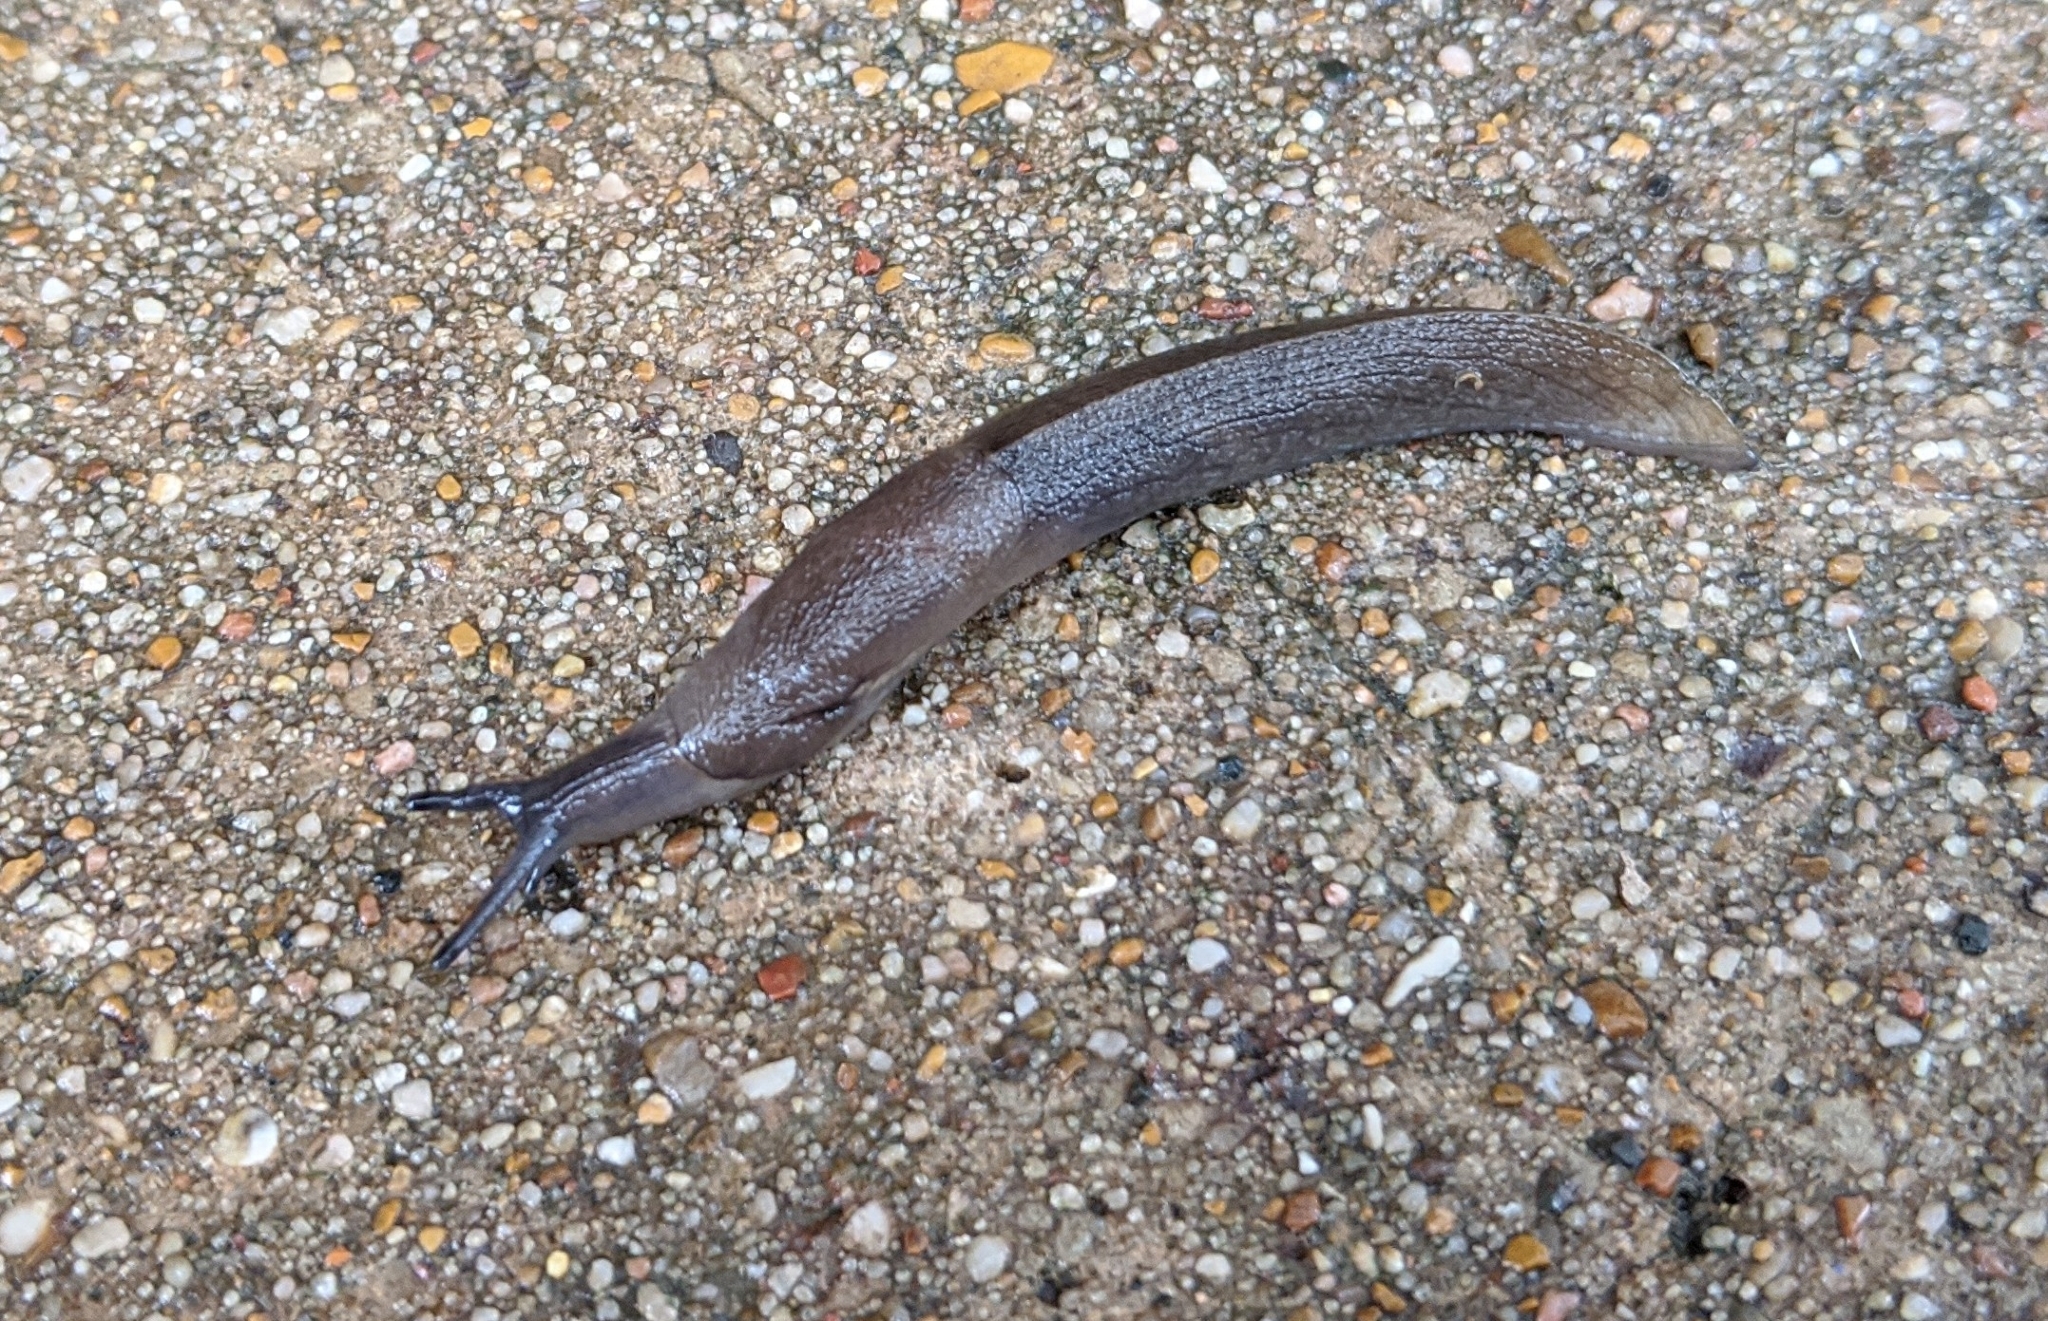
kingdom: Animalia
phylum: Mollusca
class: Gastropoda
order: Stylommatophora
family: Milacidae
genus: Milax
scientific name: Milax gagates
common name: Greenhouse slug
